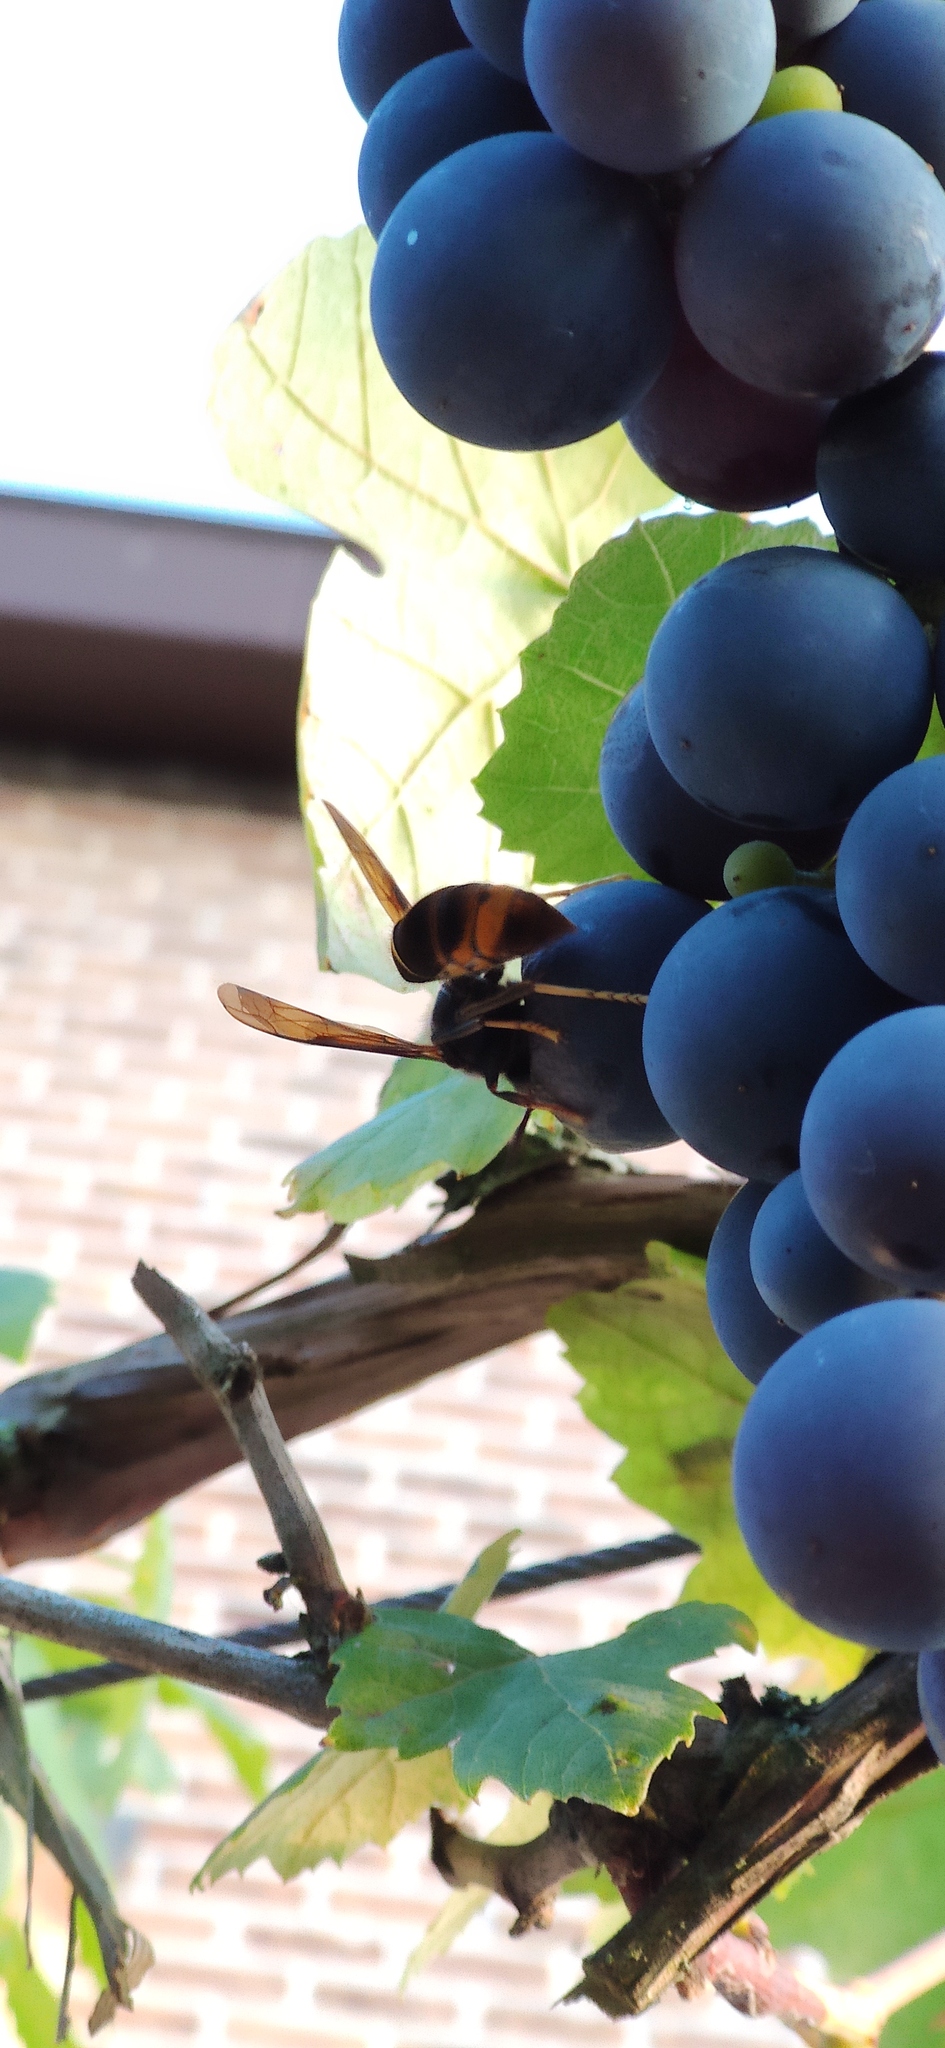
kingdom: Animalia
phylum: Arthropoda
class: Insecta
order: Hymenoptera
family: Vespidae
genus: Vespa
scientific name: Vespa velutina
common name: Asian hornet
